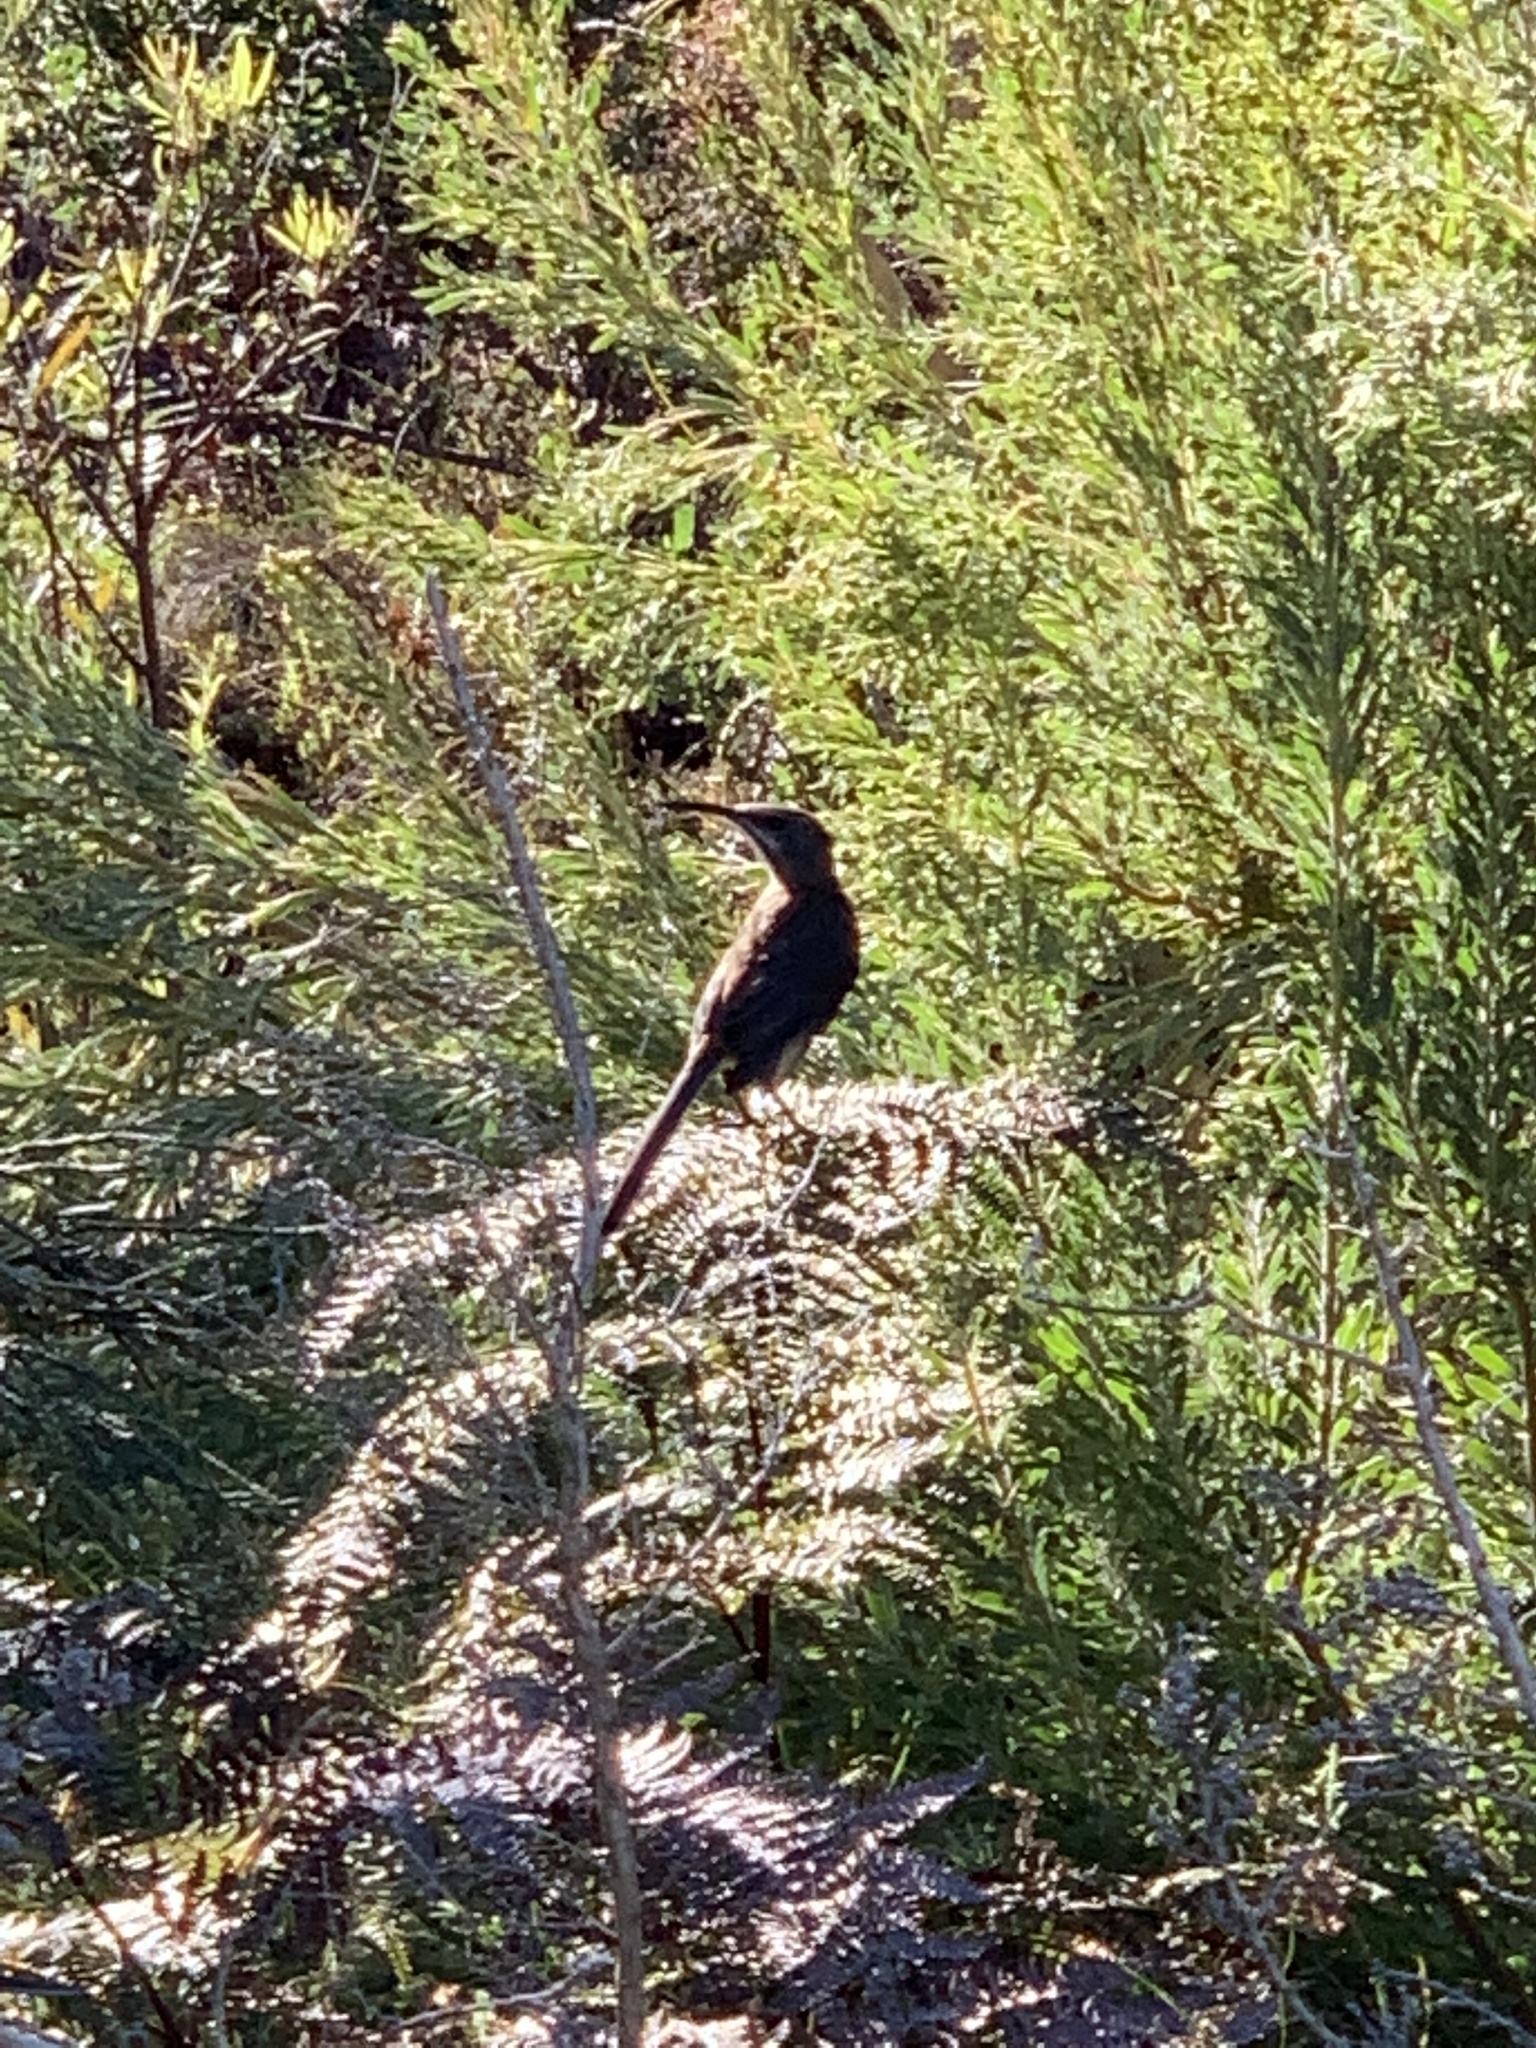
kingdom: Animalia
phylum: Chordata
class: Aves
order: Passeriformes
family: Promeropidae
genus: Promerops
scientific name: Promerops cafer
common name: Cape sugarbird
